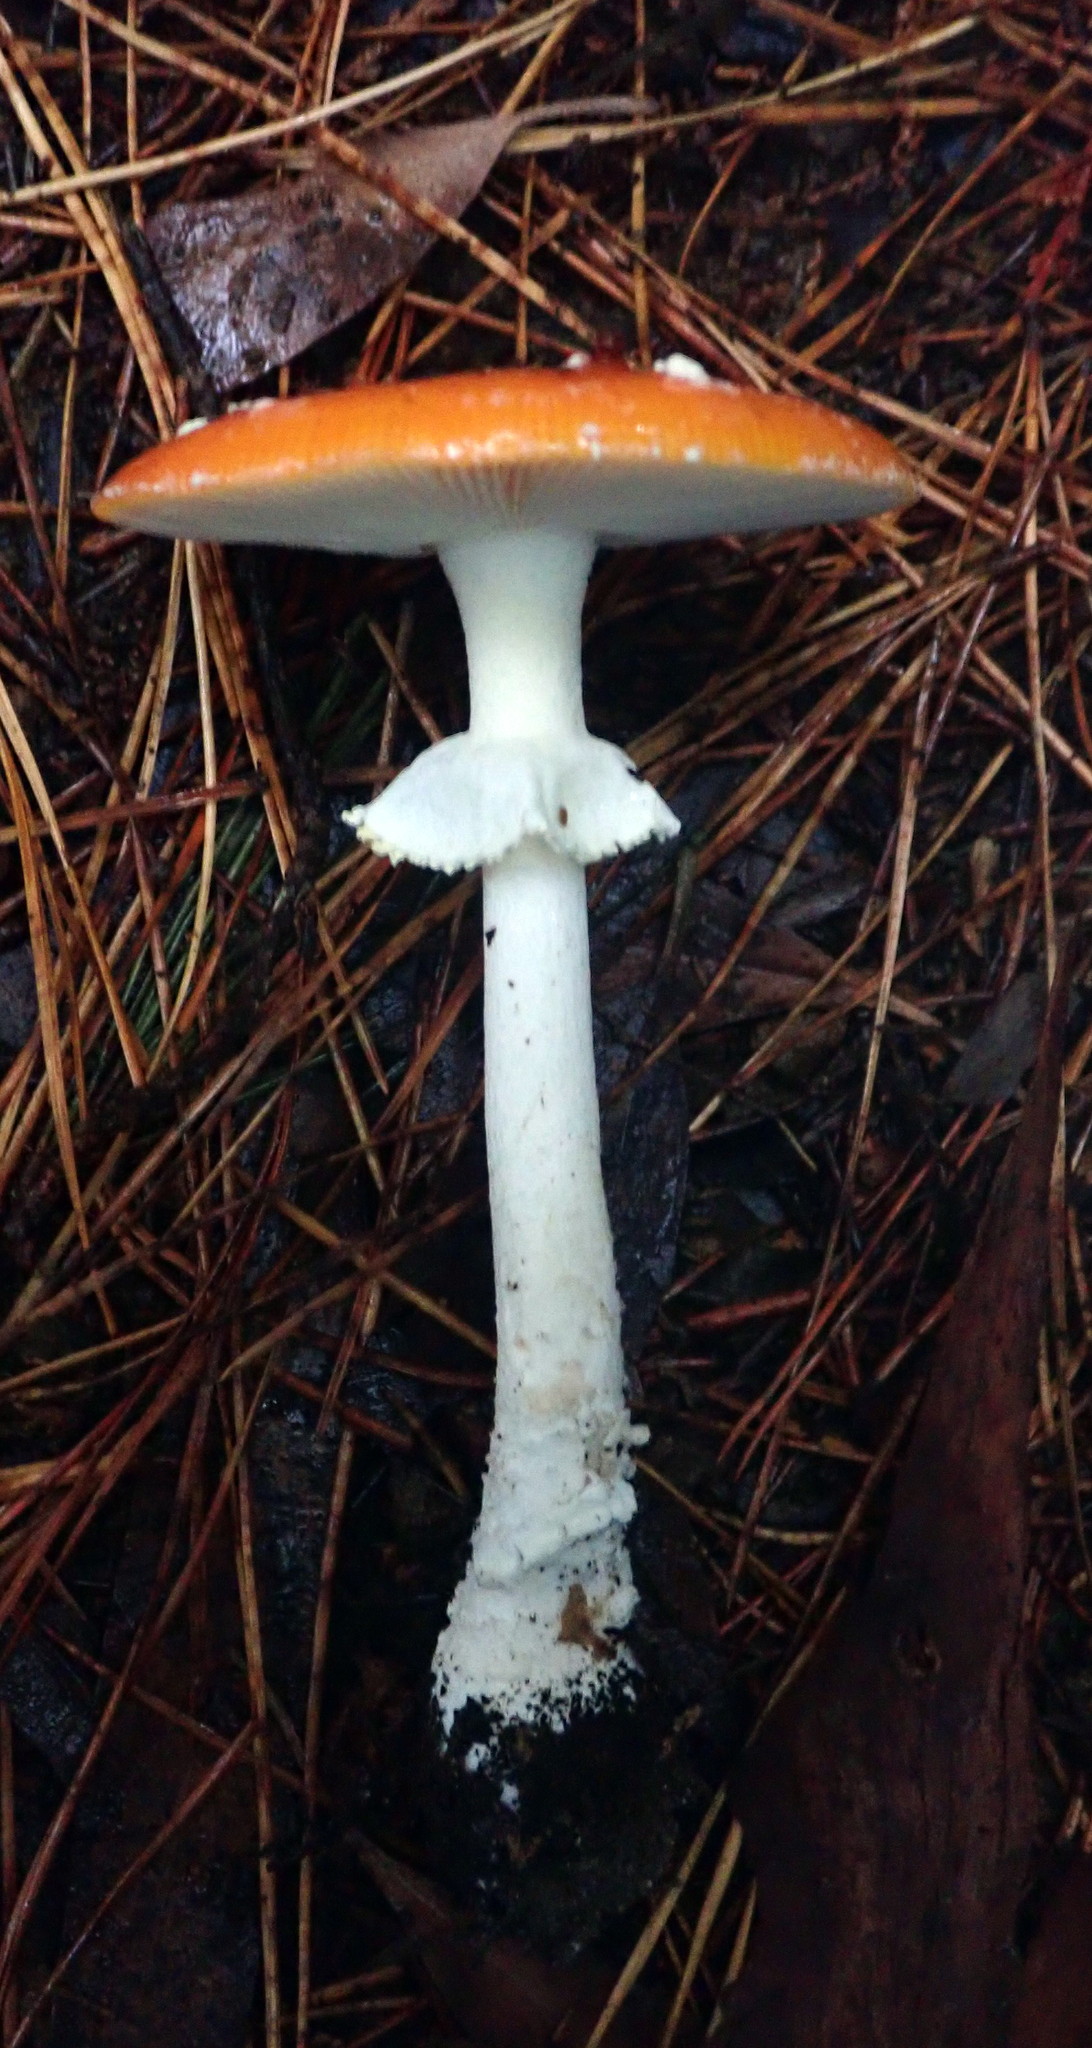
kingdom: Fungi
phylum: Basidiomycota
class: Agaricomycetes
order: Agaricales
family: Amanitaceae
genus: Amanita
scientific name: Amanita muscaria
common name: Fly agaric
